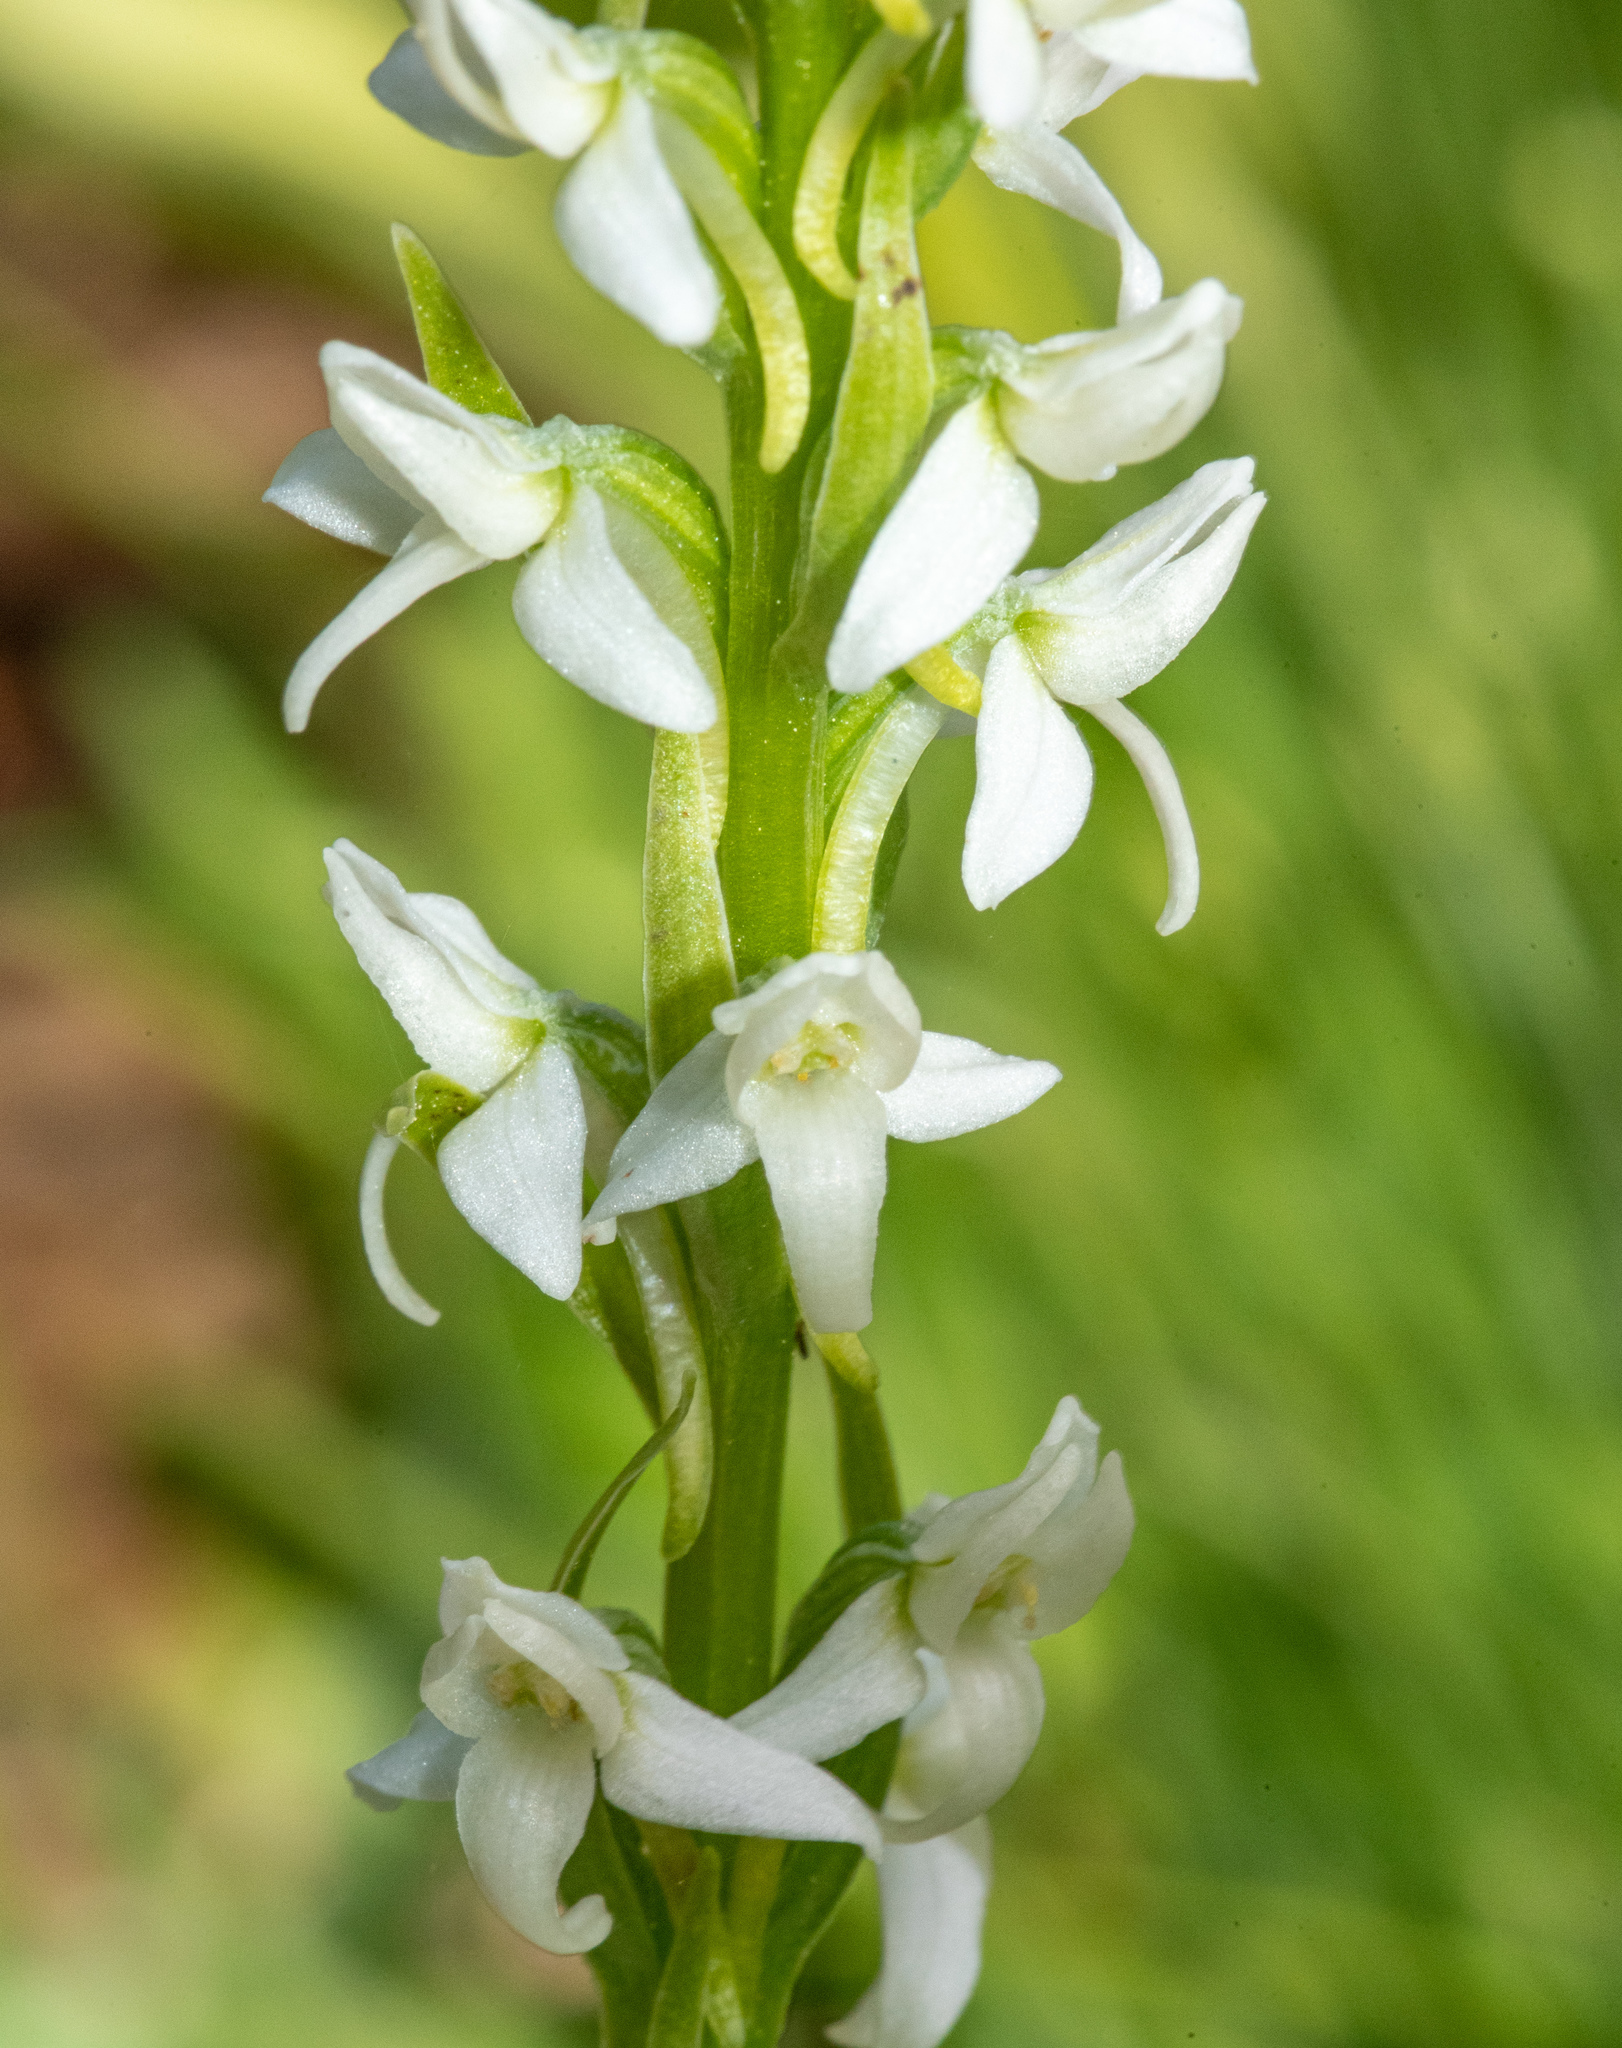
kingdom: Plantae
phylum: Tracheophyta
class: Liliopsida
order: Asparagales
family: Orchidaceae
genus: Platanthera
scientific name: Platanthera dilatata
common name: Bog candles
